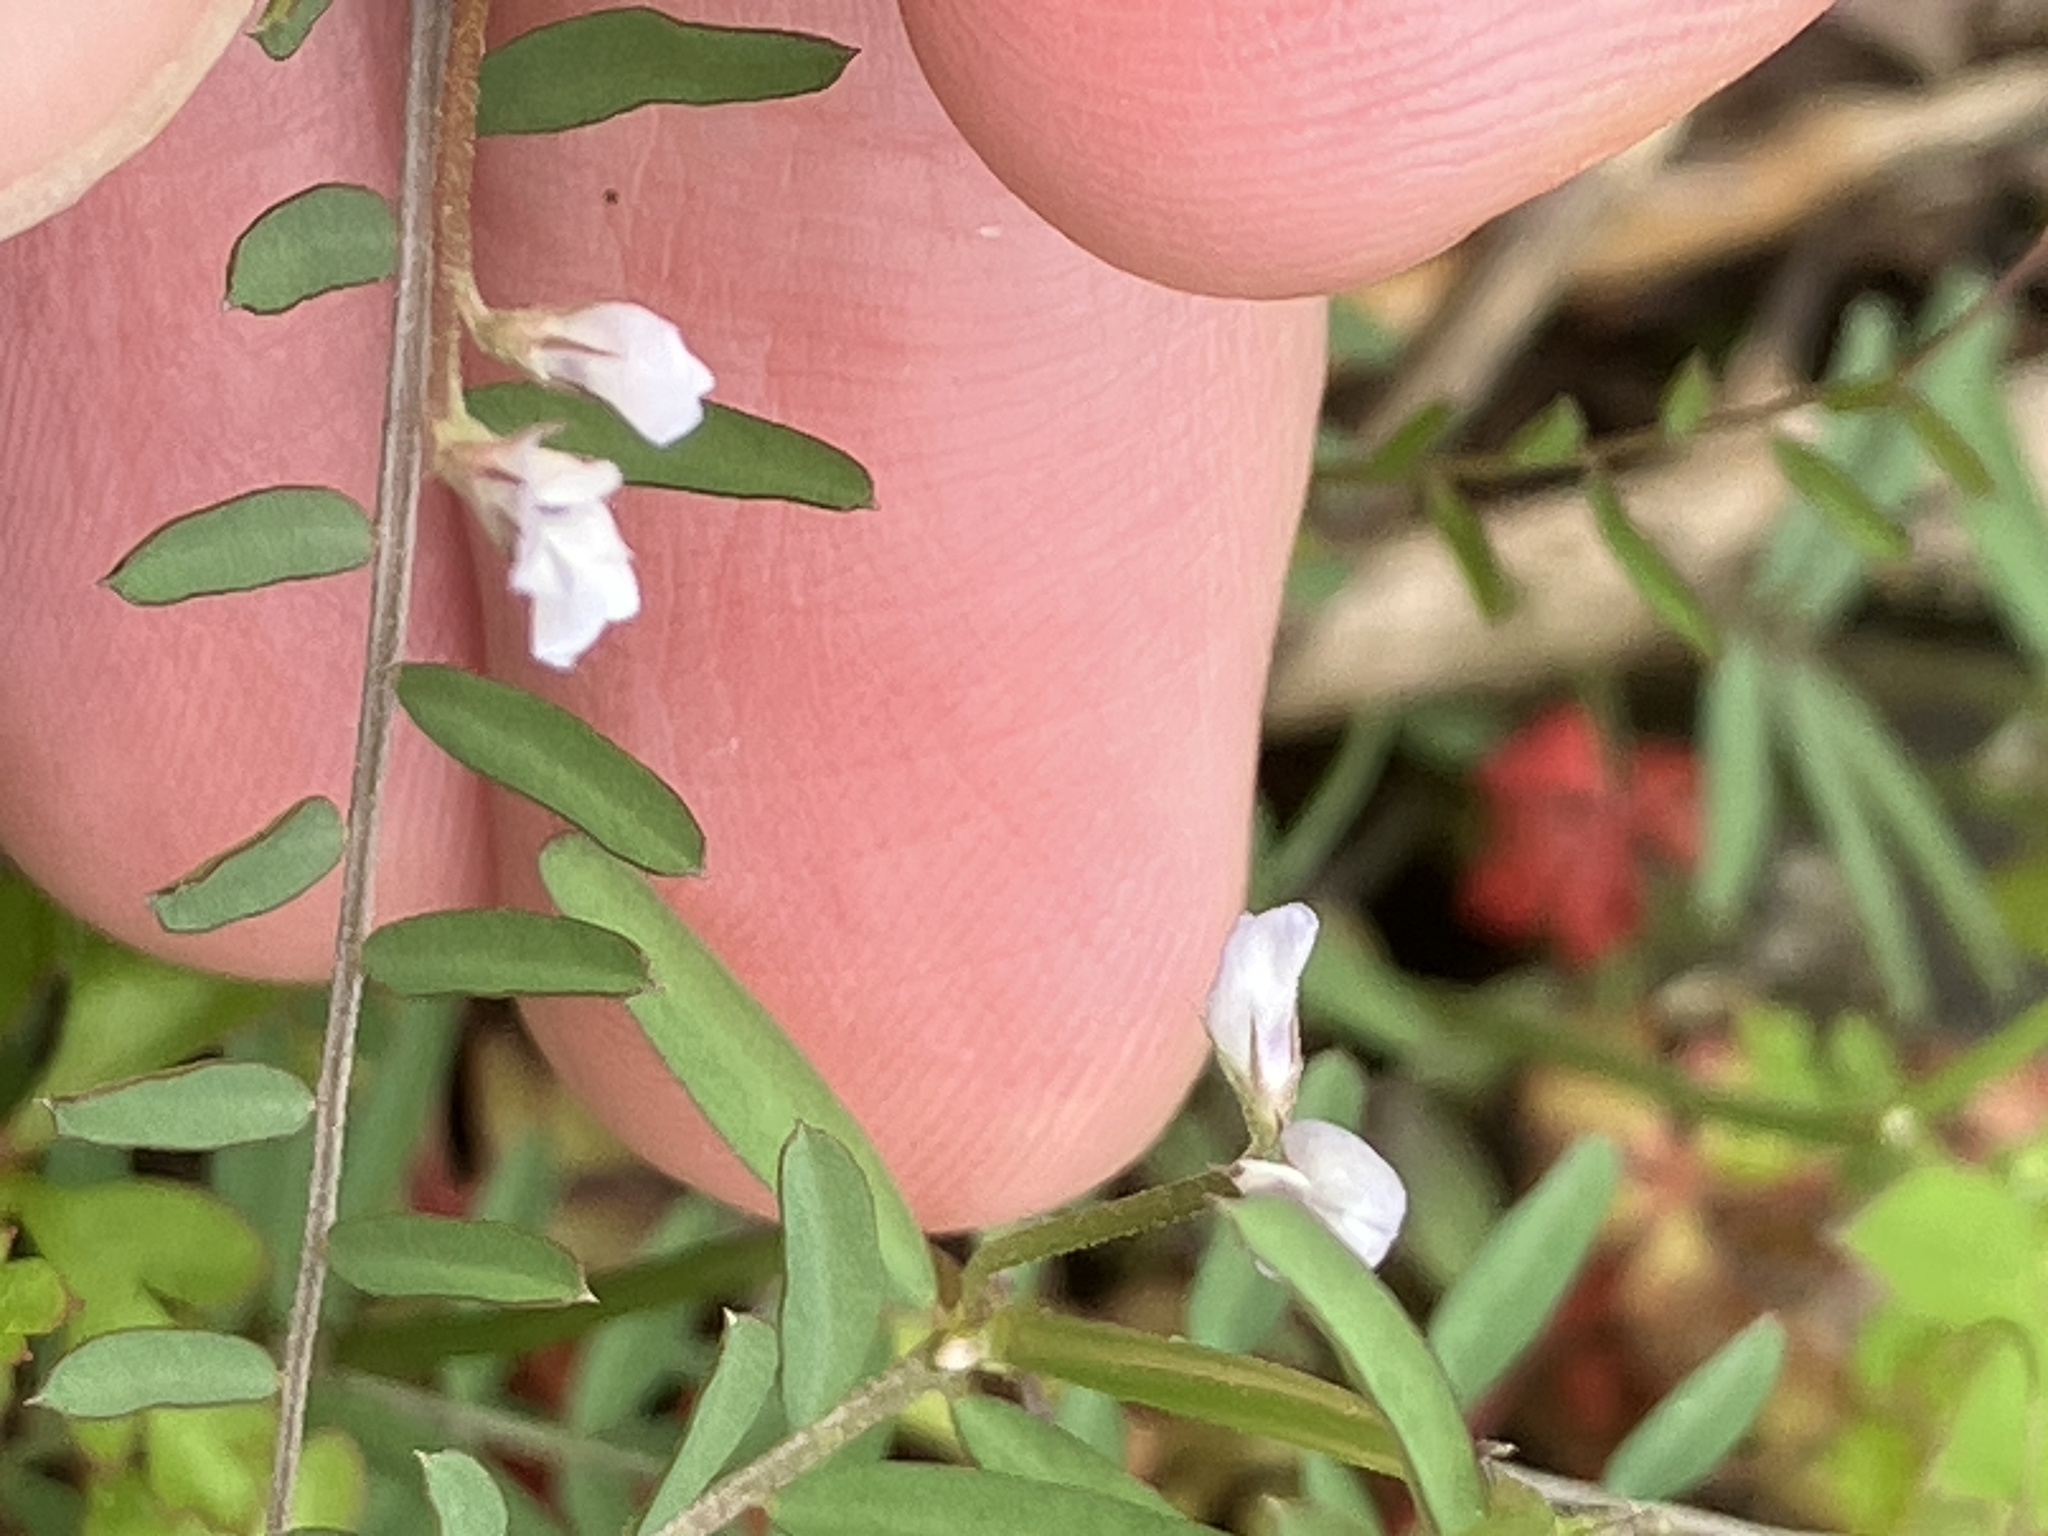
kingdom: Plantae
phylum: Tracheophyta
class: Magnoliopsida
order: Fabales
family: Fabaceae
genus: Vicia
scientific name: Vicia hirsuta
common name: Tiny vetch
